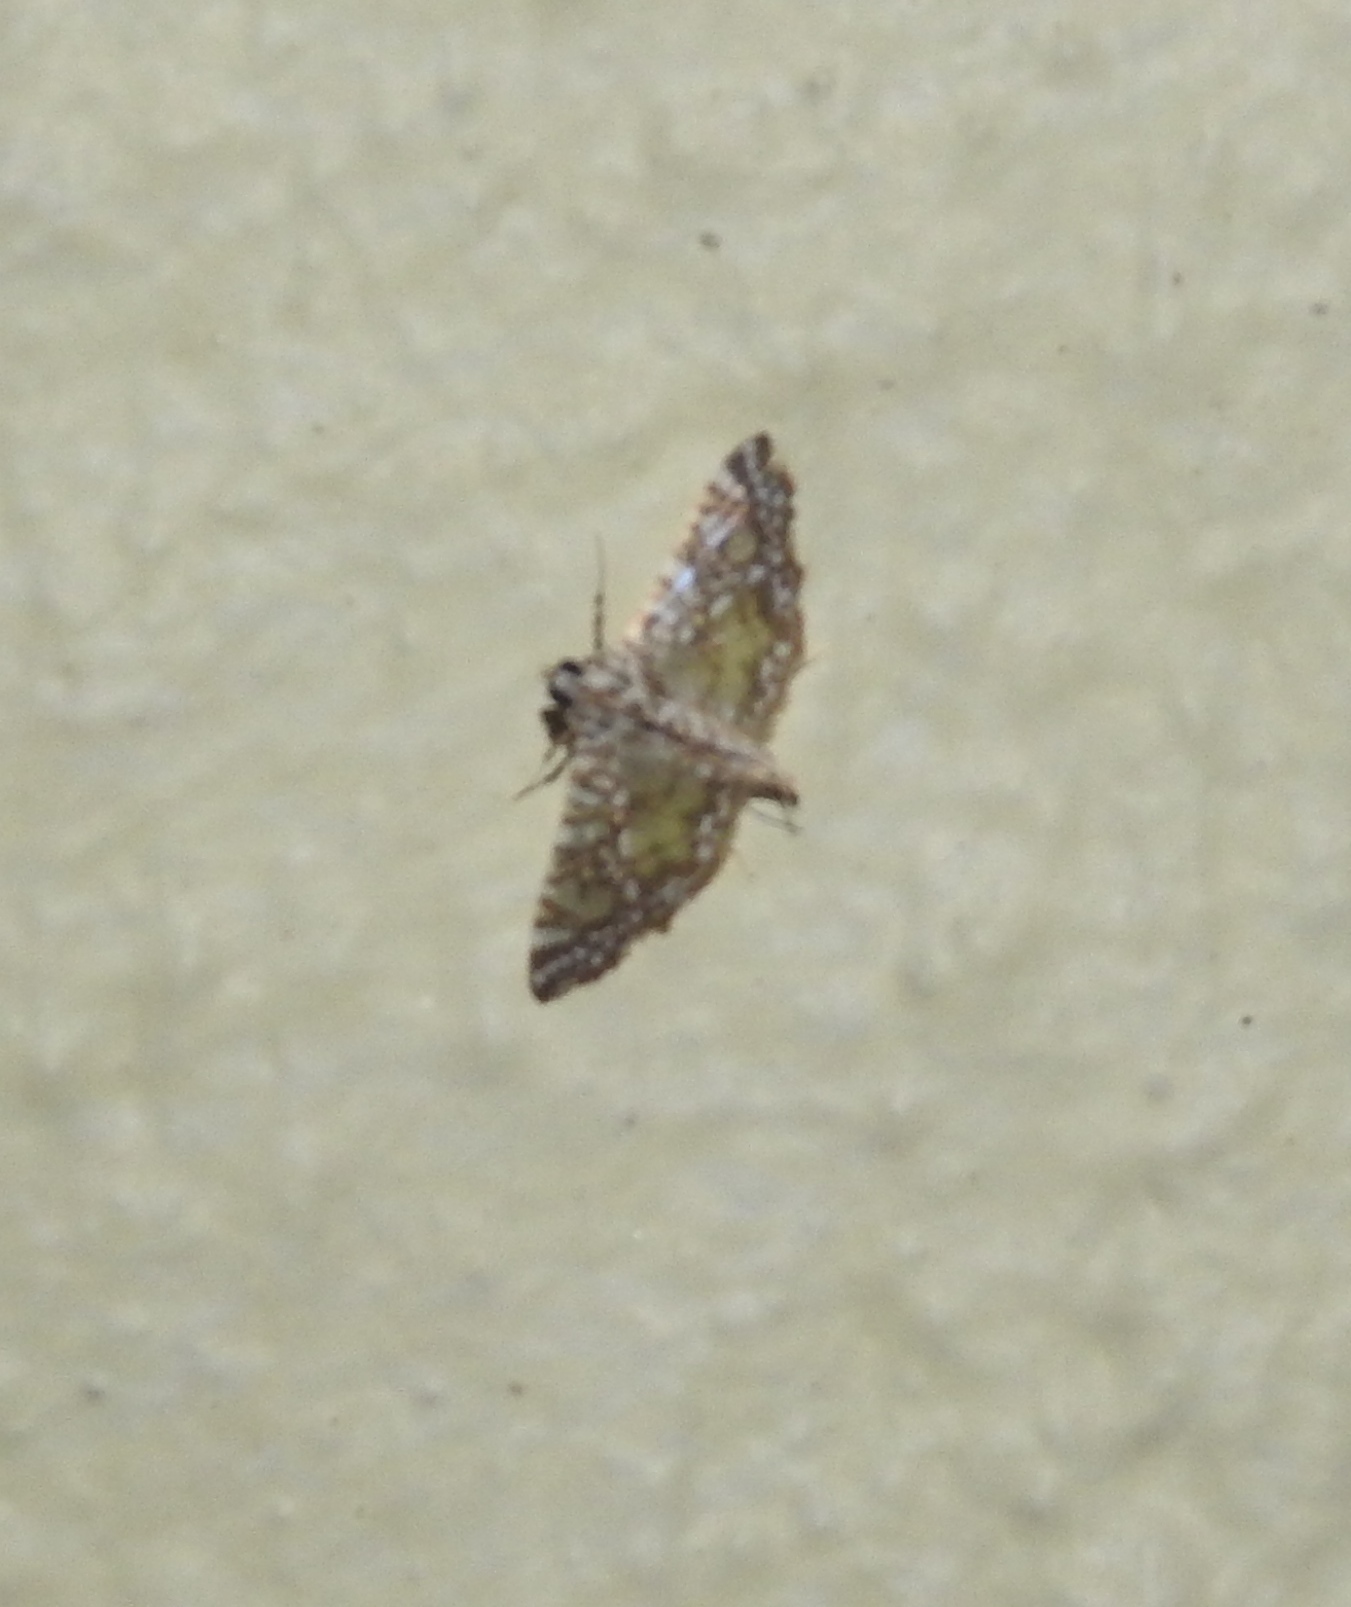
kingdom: Animalia
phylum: Arthropoda
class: Insecta
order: Lepidoptera
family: Crambidae
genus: Glyphodes
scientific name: Glyphodes onychinalis
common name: Swan plant moth
